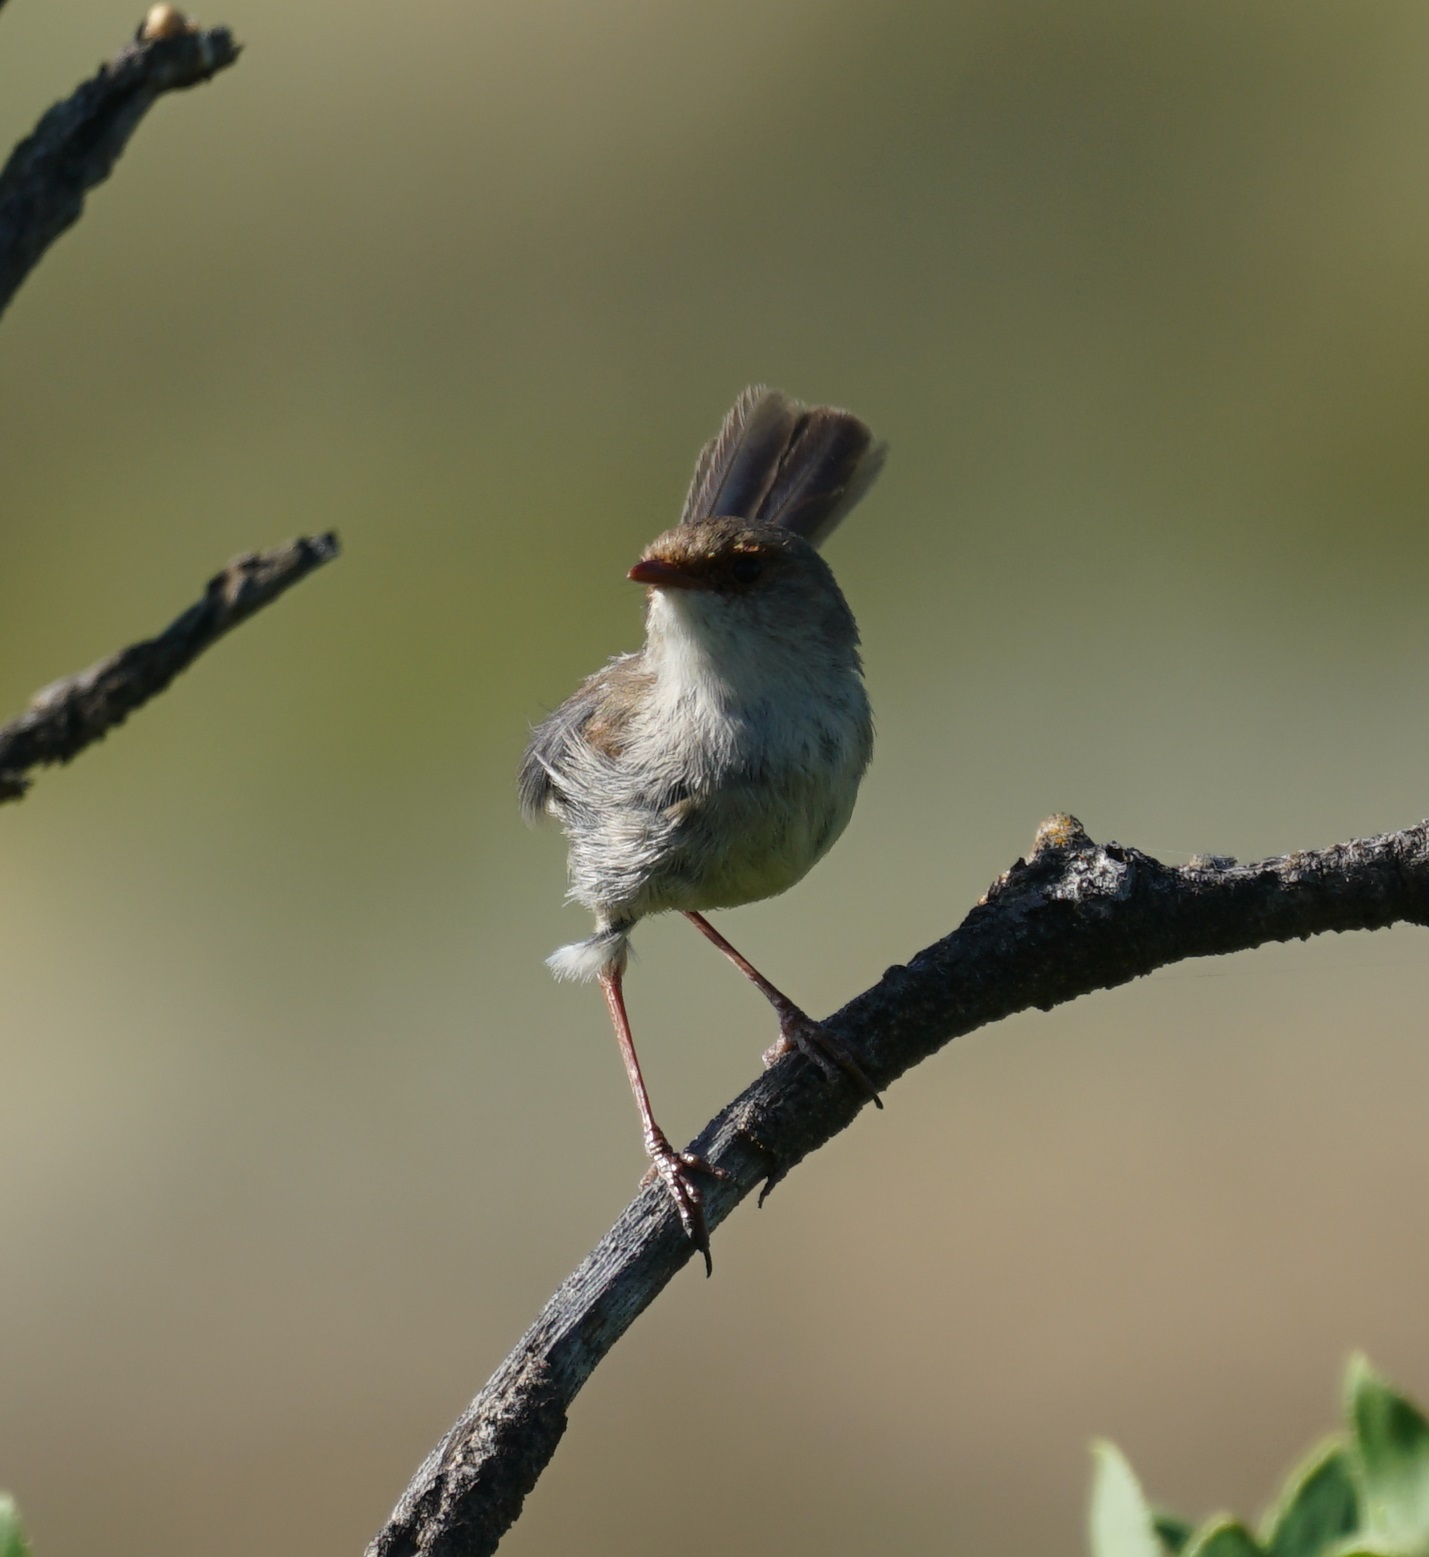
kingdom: Animalia
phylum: Chordata
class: Aves
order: Passeriformes
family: Maluridae
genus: Malurus
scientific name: Malurus cyaneus
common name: Superb fairywren
